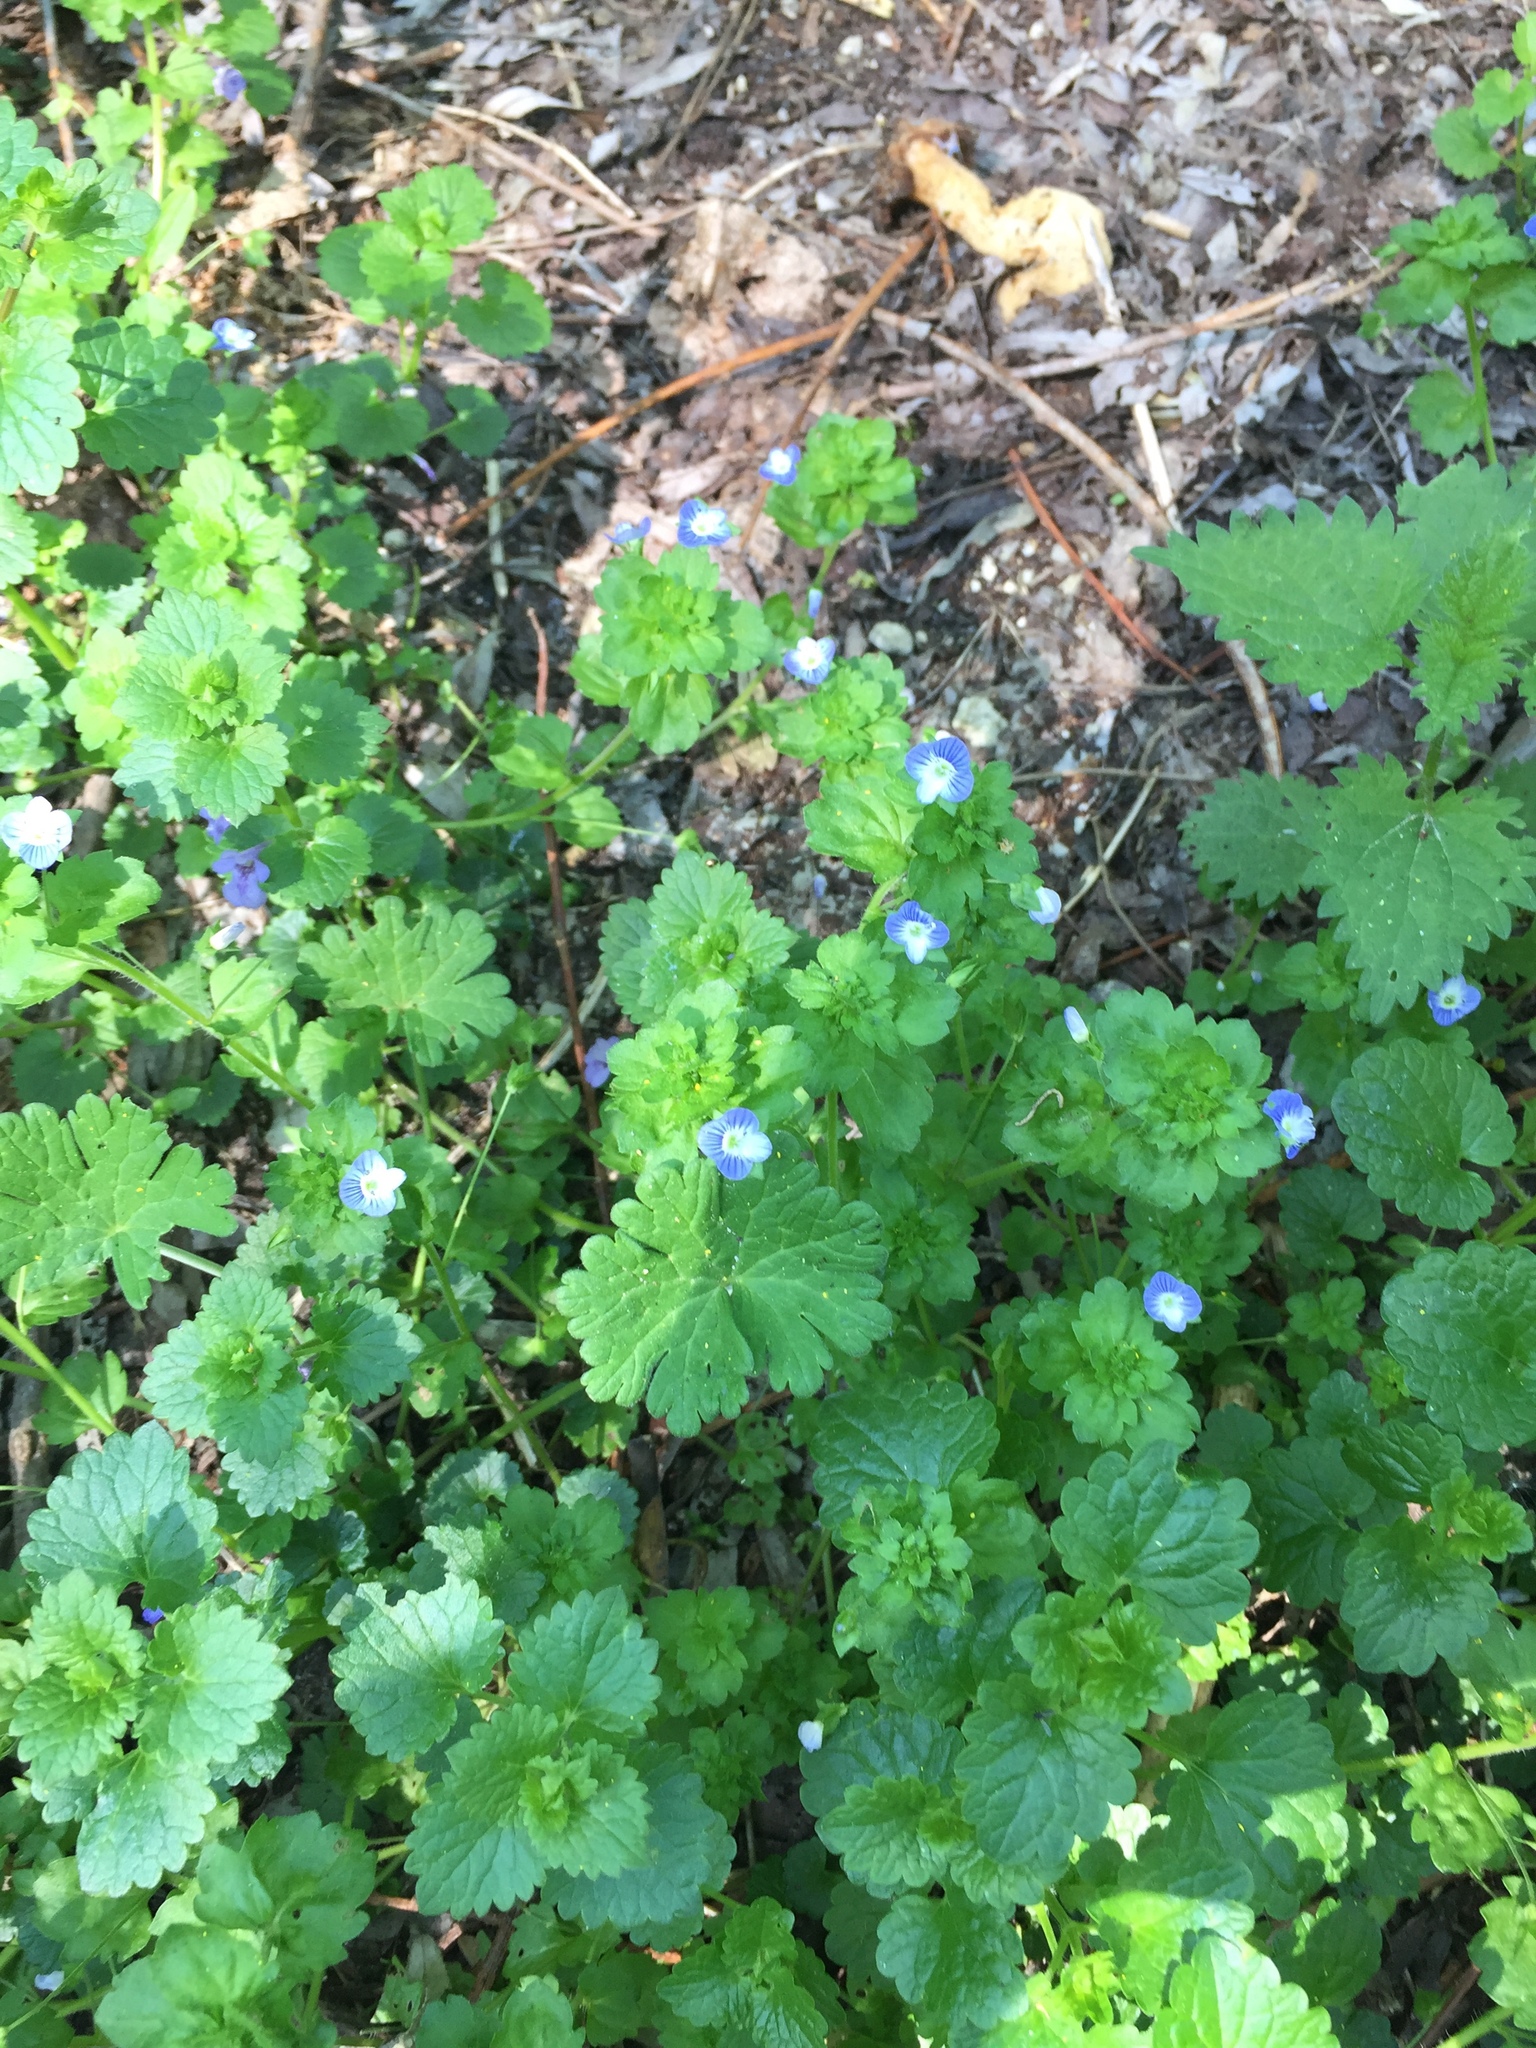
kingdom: Plantae
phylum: Tracheophyta
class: Magnoliopsida
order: Lamiales
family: Plantaginaceae
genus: Veronica
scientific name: Veronica persica
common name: Common field-speedwell
